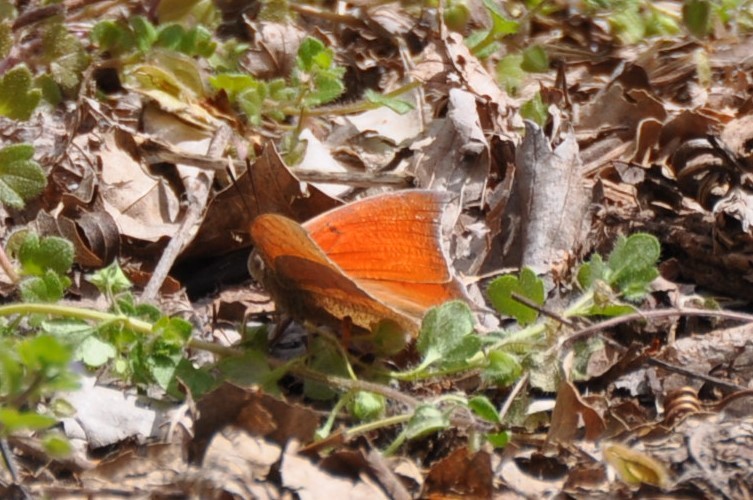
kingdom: Animalia
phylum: Arthropoda
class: Insecta
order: Lepidoptera
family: Nymphalidae
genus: Anaea
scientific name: Anaea andria
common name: Goatweed leafwing
